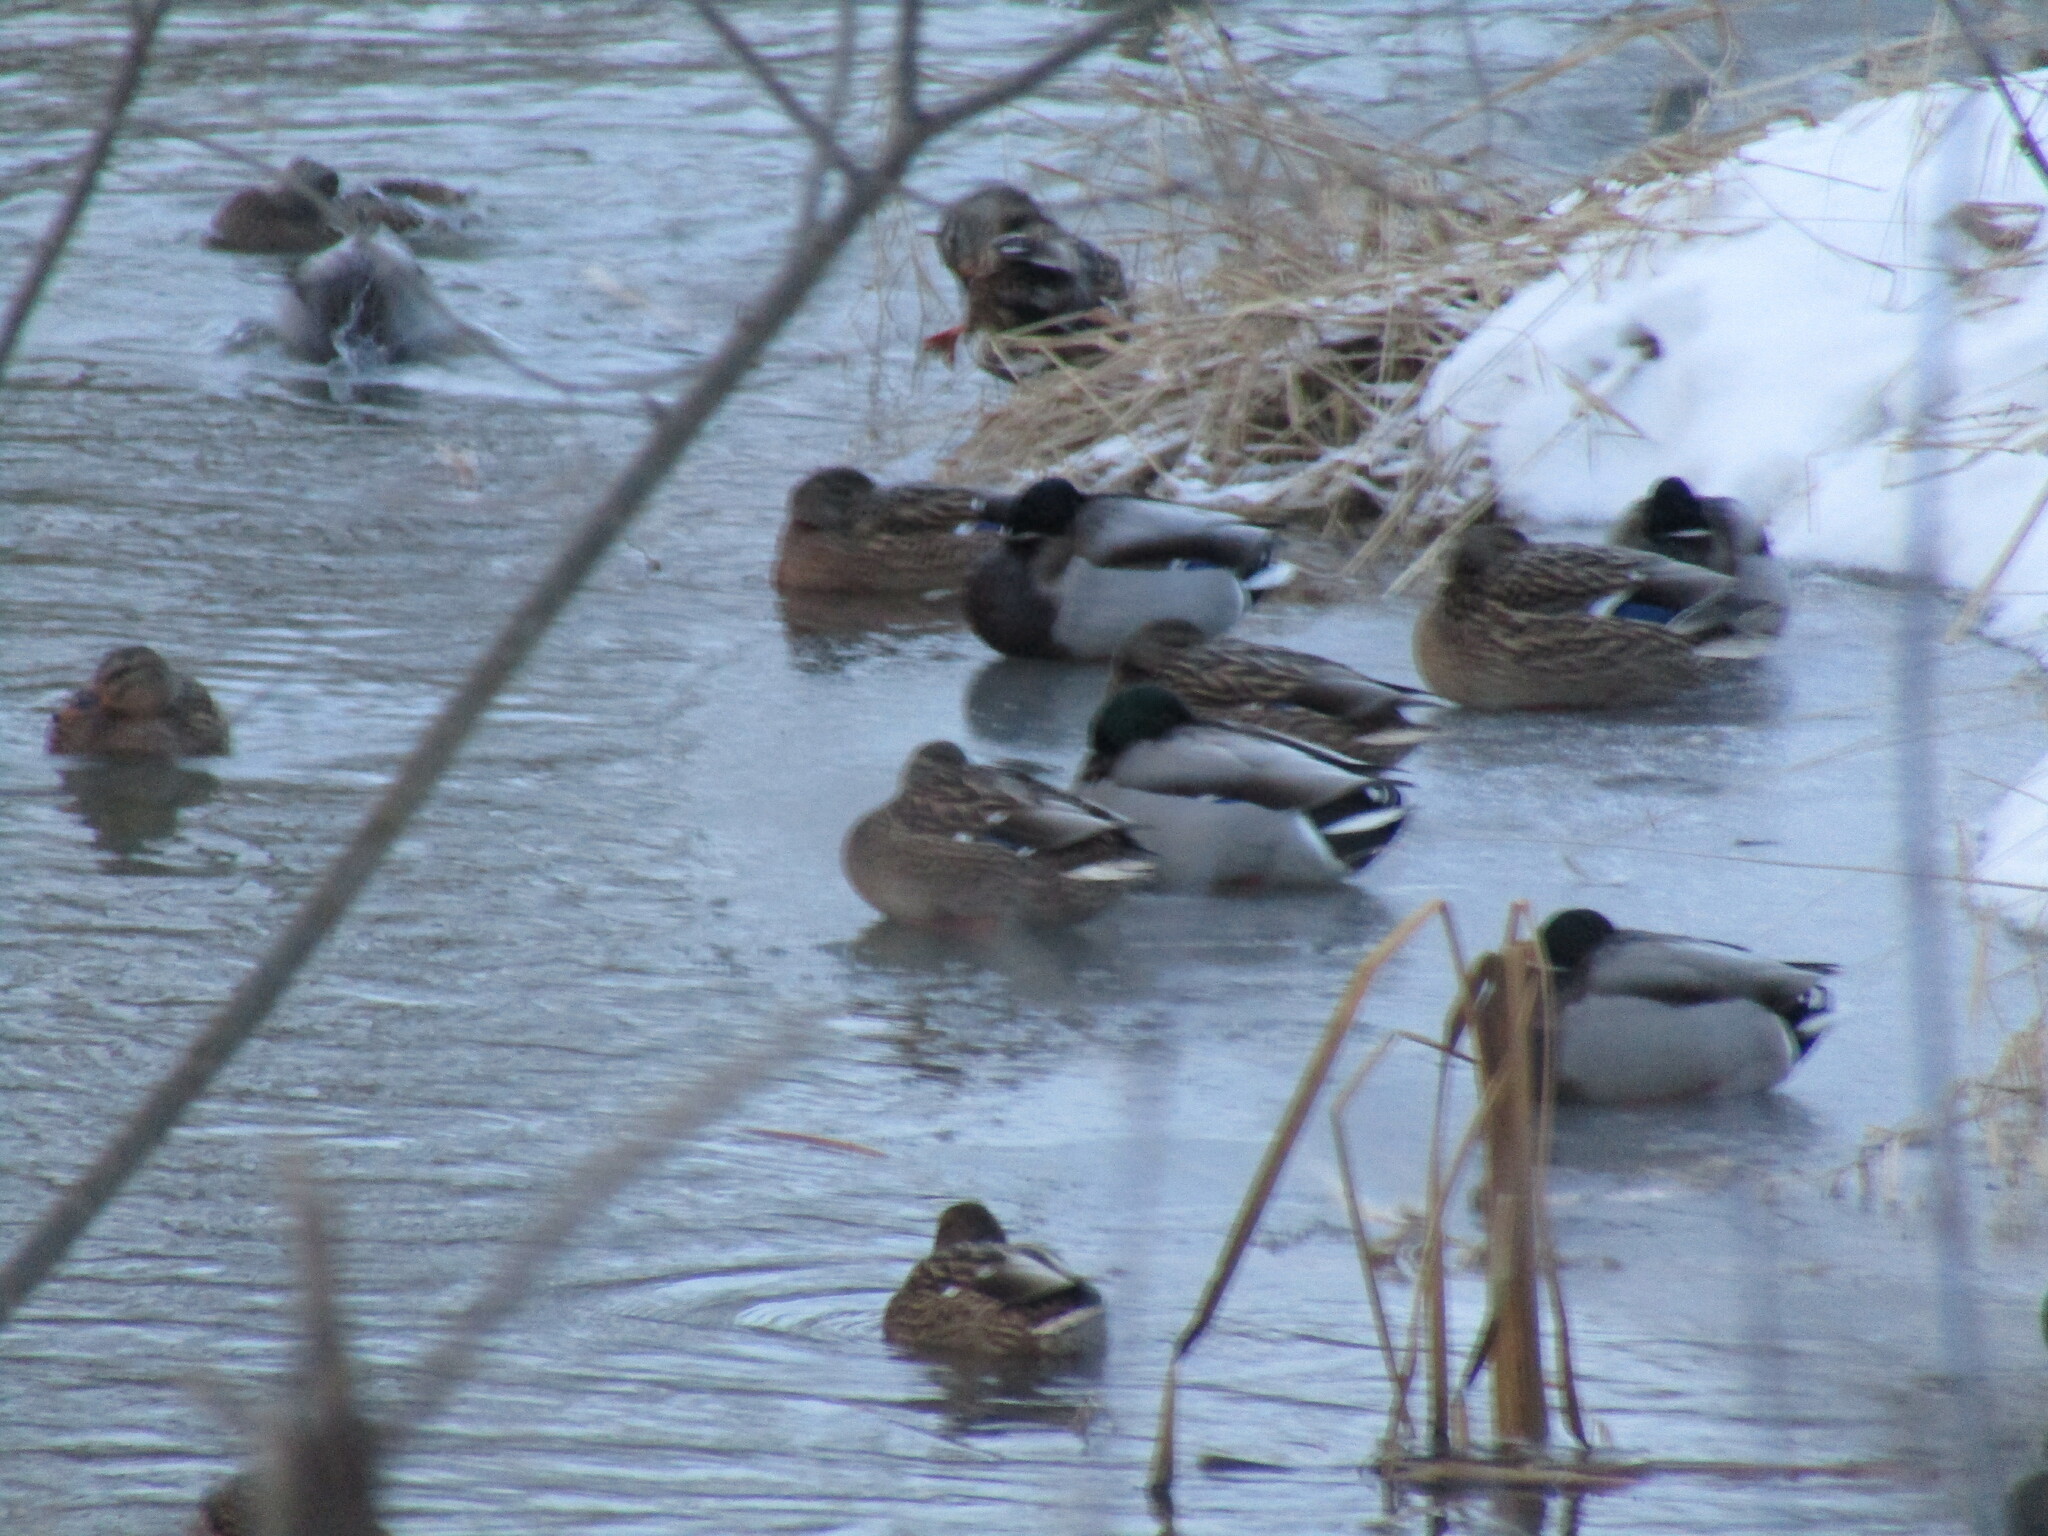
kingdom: Animalia
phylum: Chordata
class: Aves
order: Anseriformes
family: Anatidae
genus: Anas
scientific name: Anas platyrhynchos
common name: Mallard
